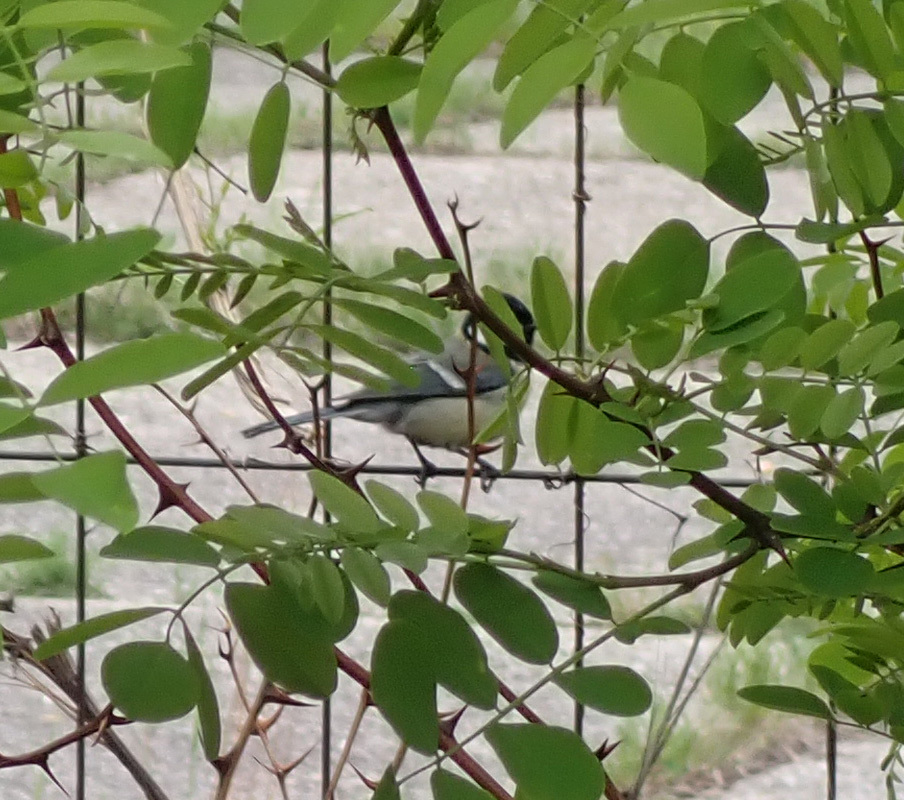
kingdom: Animalia
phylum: Chordata
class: Aves
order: Passeriformes
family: Paridae
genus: Parus
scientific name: Parus major
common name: Great tit
